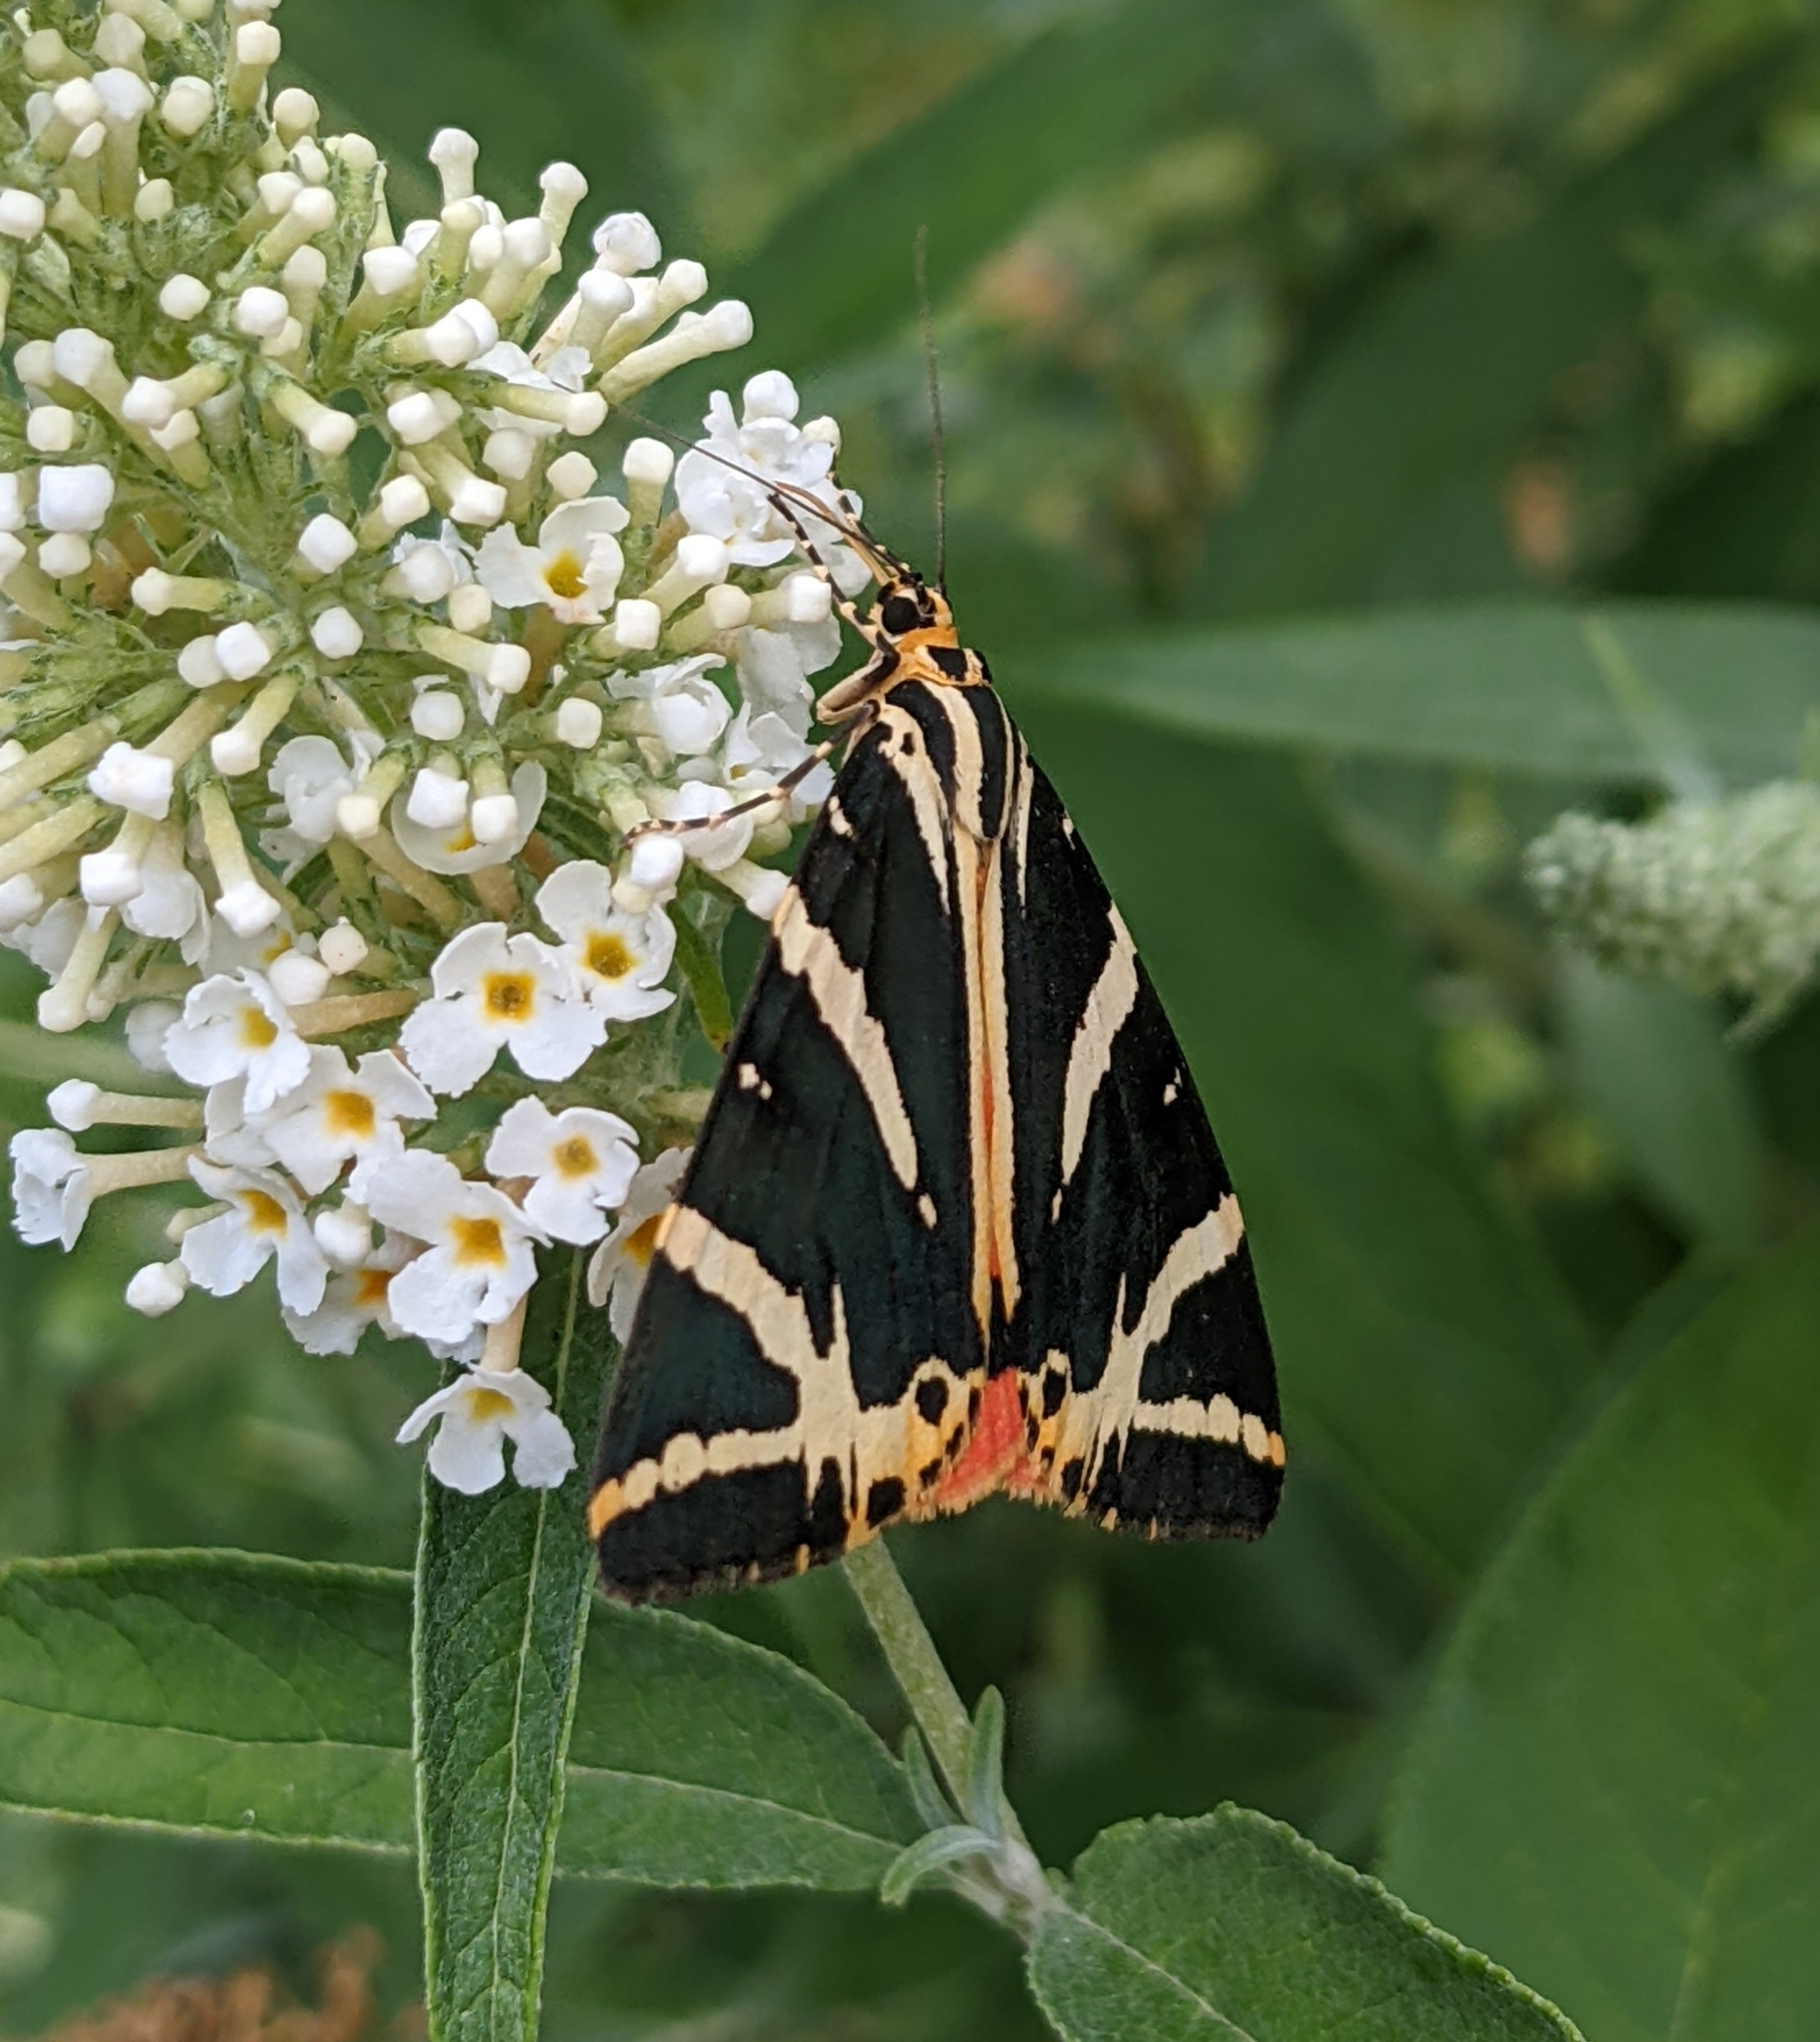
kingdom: Animalia
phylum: Arthropoda
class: Insecta
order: Lepidoptera
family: Erebidae
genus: Euplagia
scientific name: Euplagia quadripunctaria
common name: Jersey tiger
